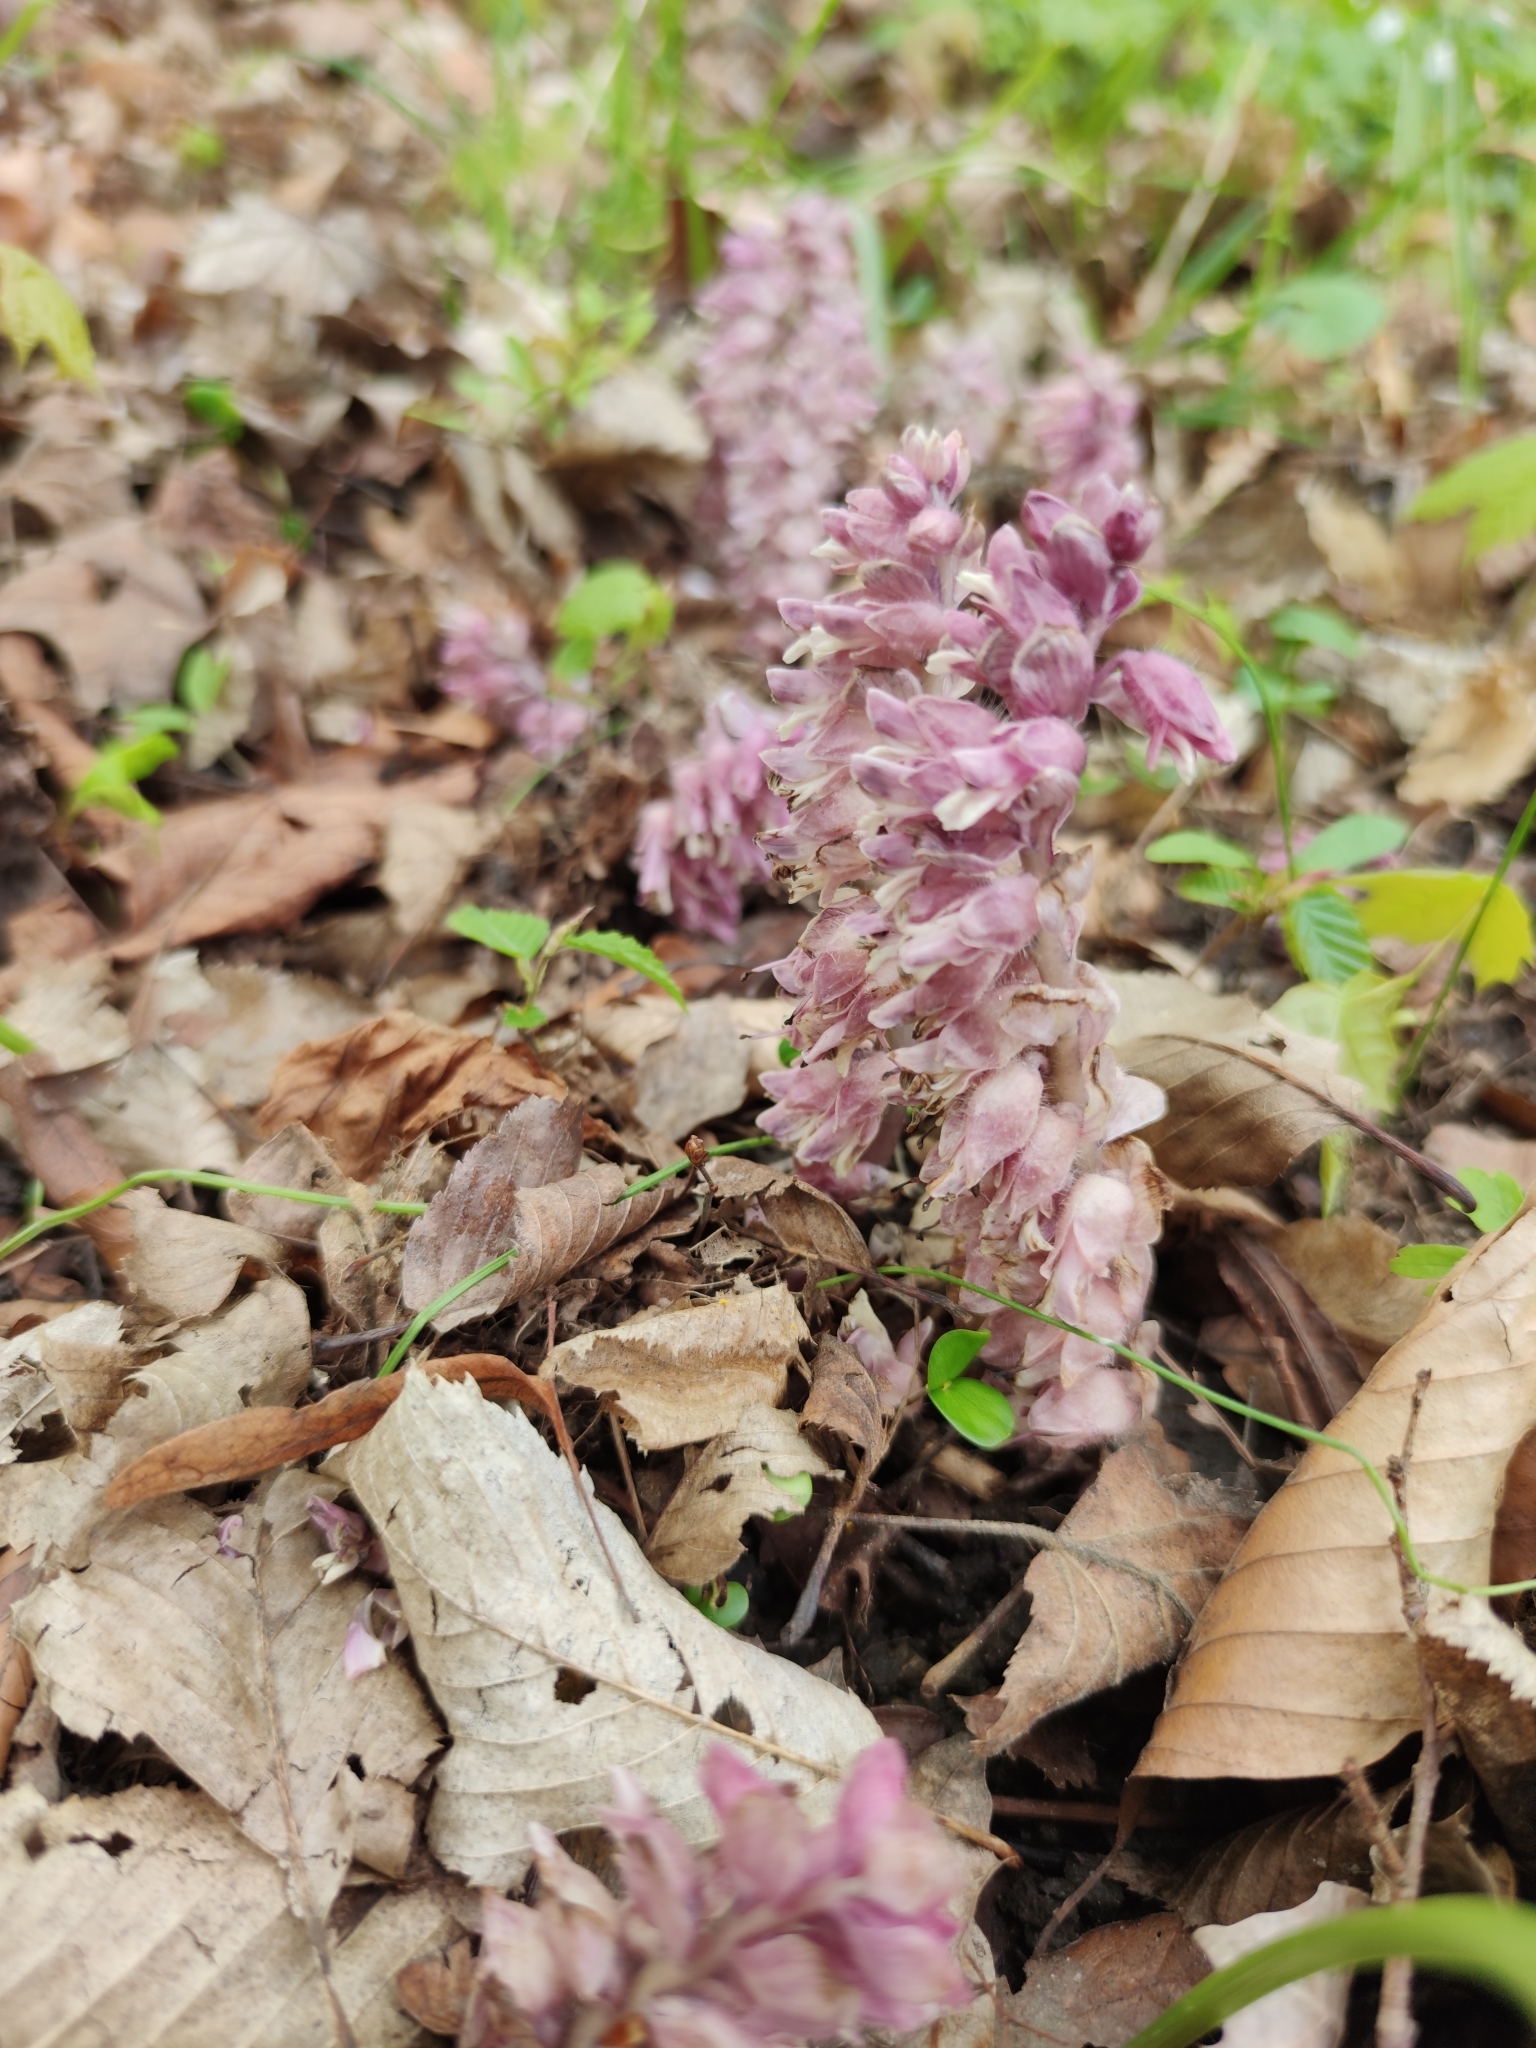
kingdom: Plantae
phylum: Tracheophyta
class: Magnoliopsida
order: Lamiales
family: Orobanchaceae
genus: Lathraea
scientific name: Lathraea squamaria
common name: Toothwort
